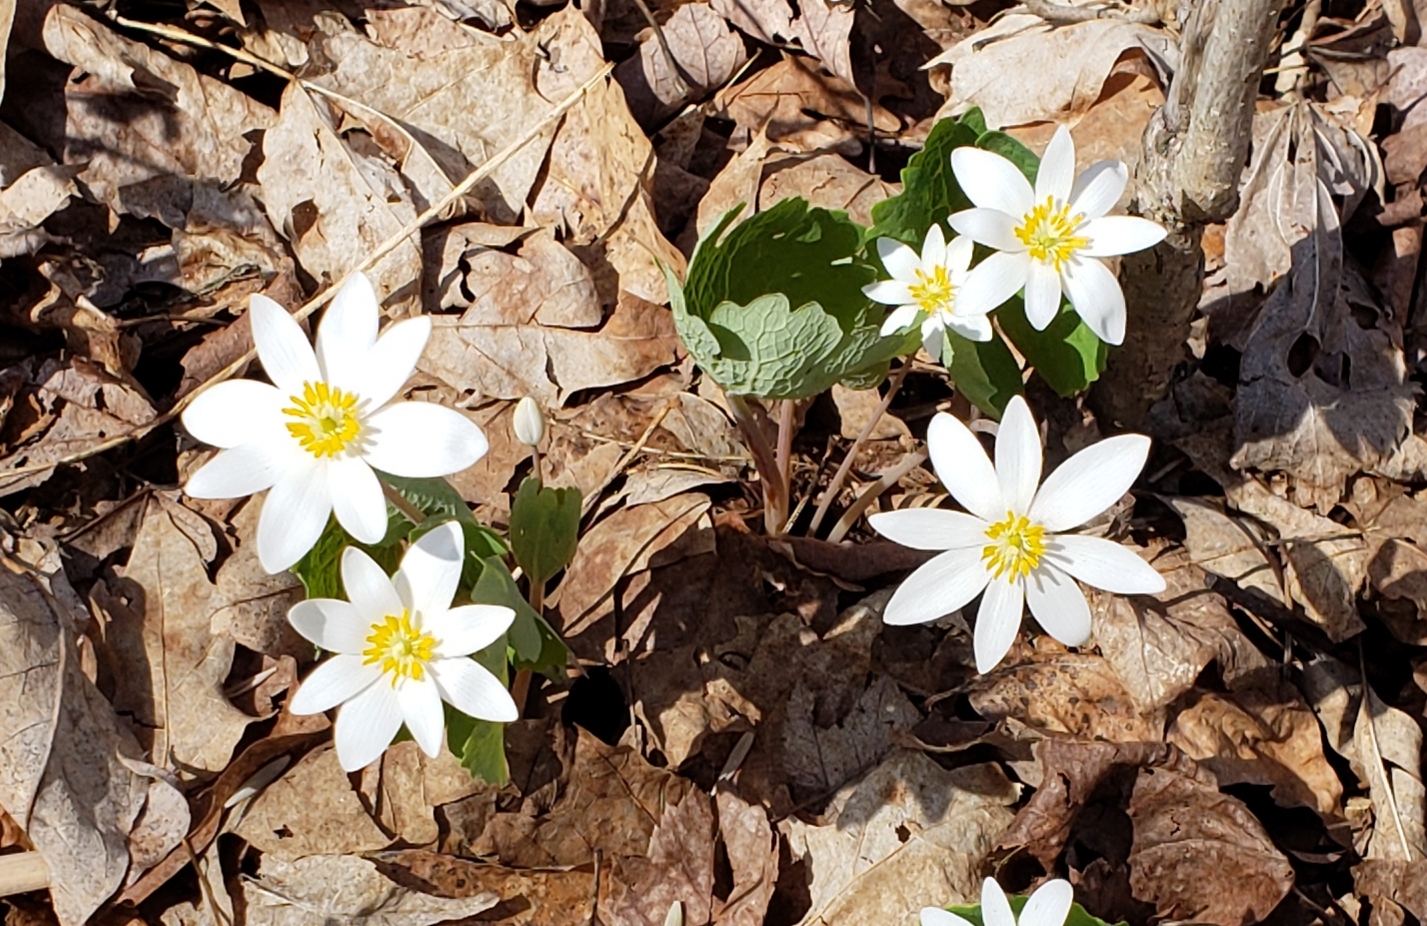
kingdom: Plantae
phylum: Tracheophyta
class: Magnoliopsida
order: Ranunculales
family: Papaveraceae
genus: Sanguinaria
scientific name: Sanguinaria canadensis
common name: Bloodroot
